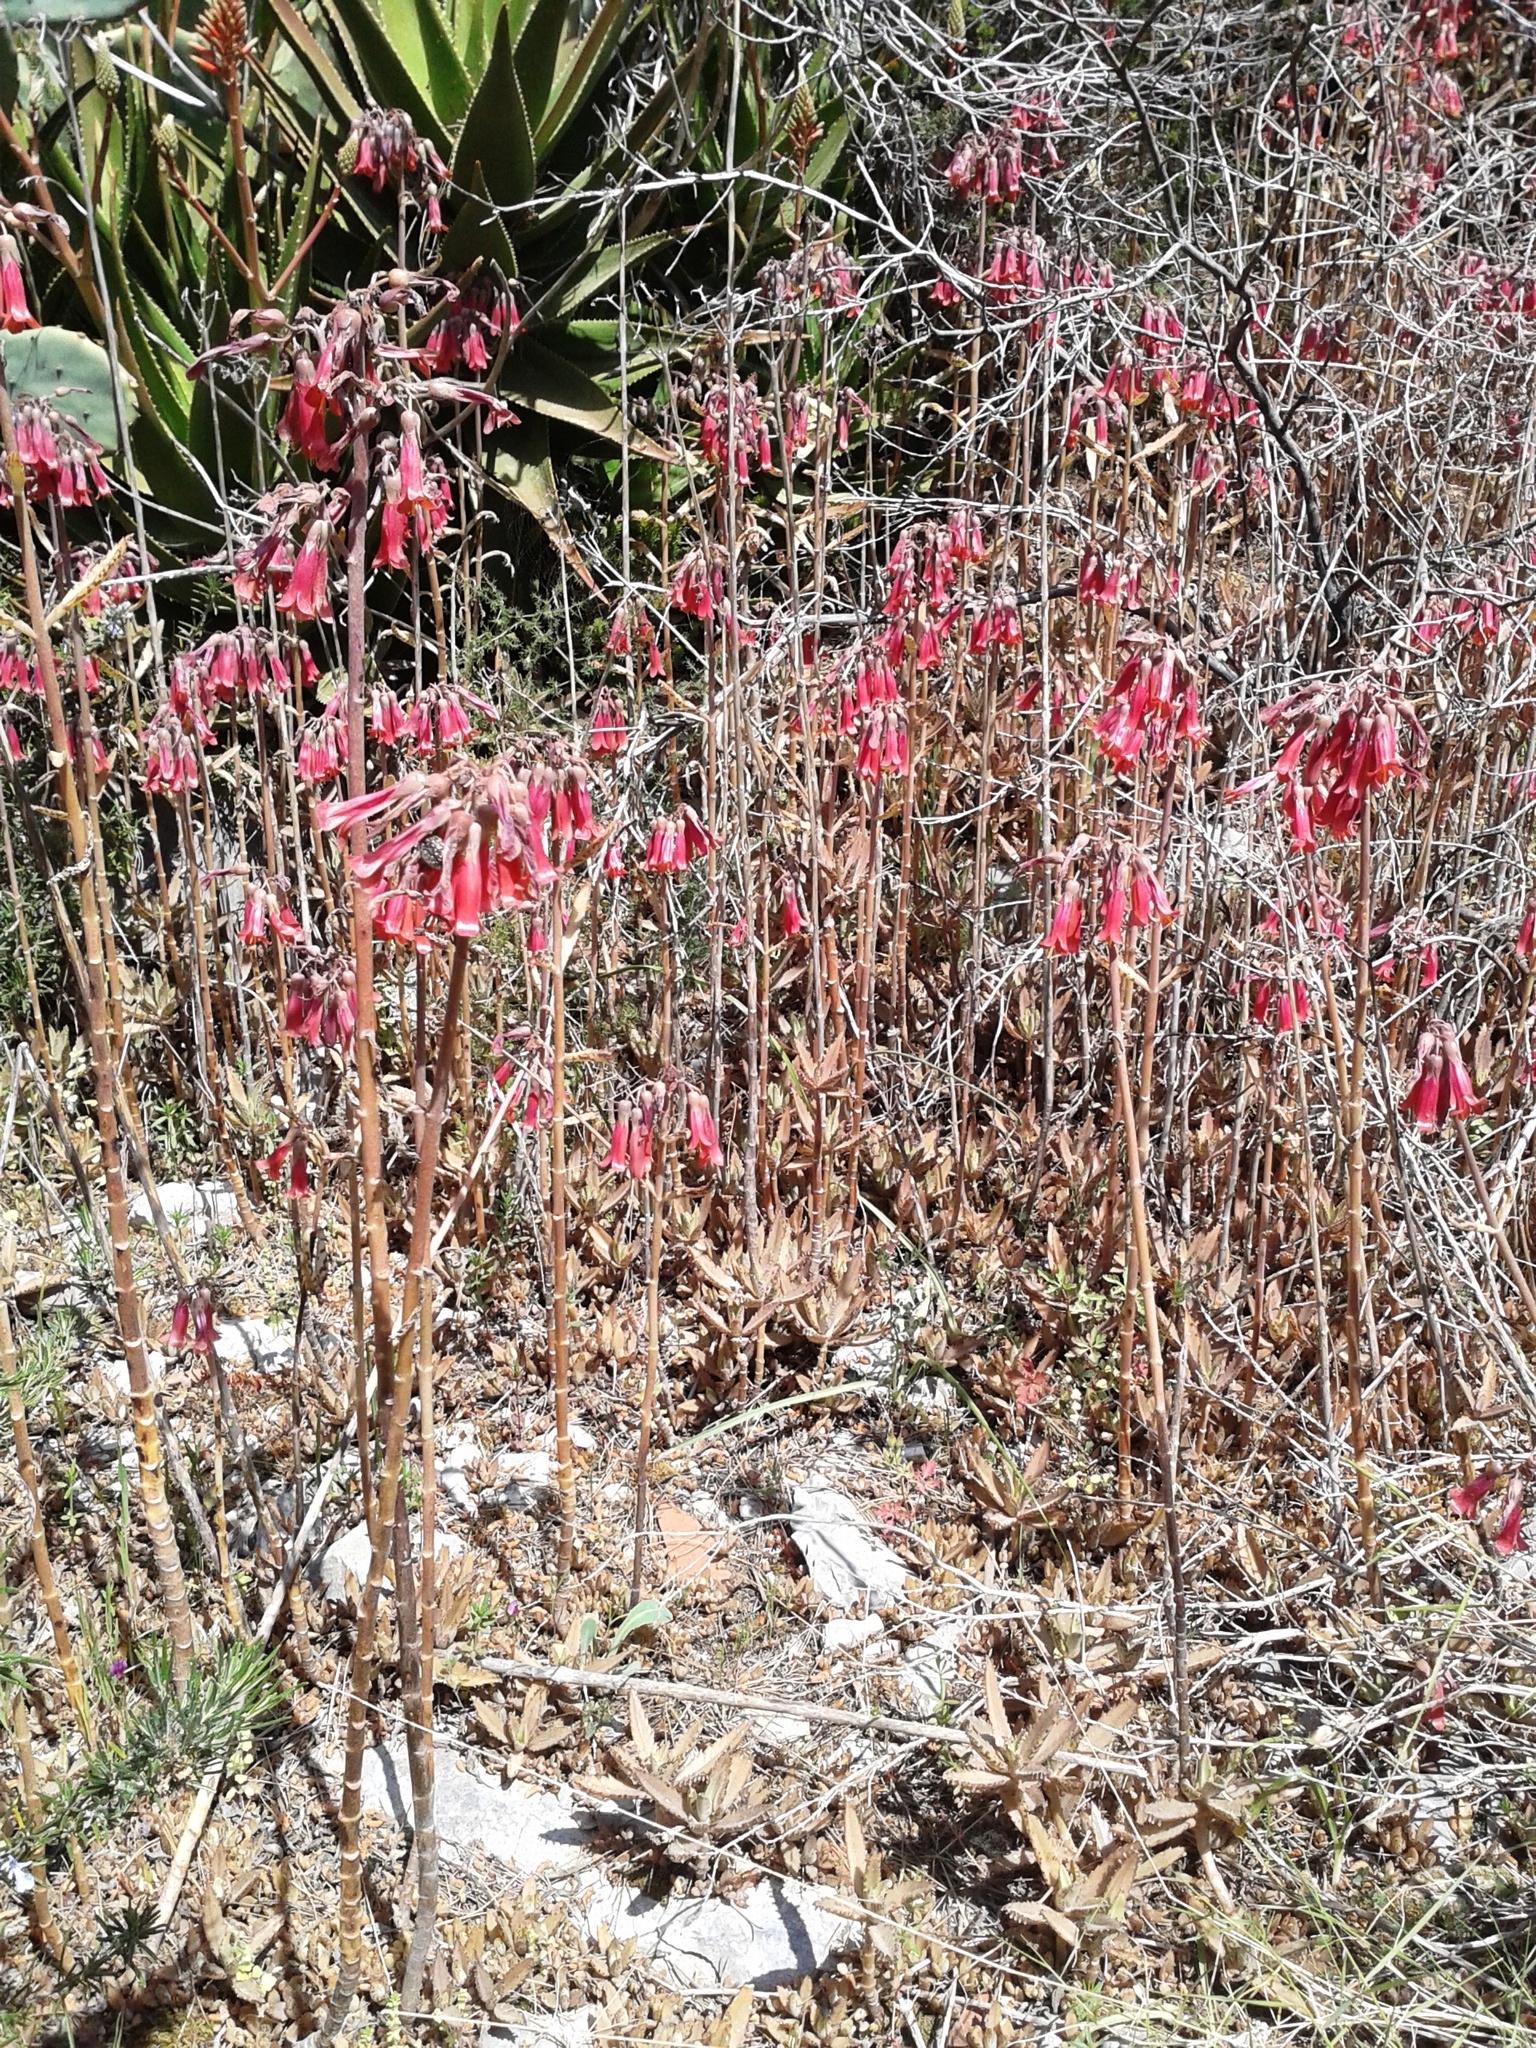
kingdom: Plantae
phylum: Tracheophyta
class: Magnoliopsida
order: Saxifragales
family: Crassulaceae
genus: Kalanchoe
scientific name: Kalanchoe houghtonii
